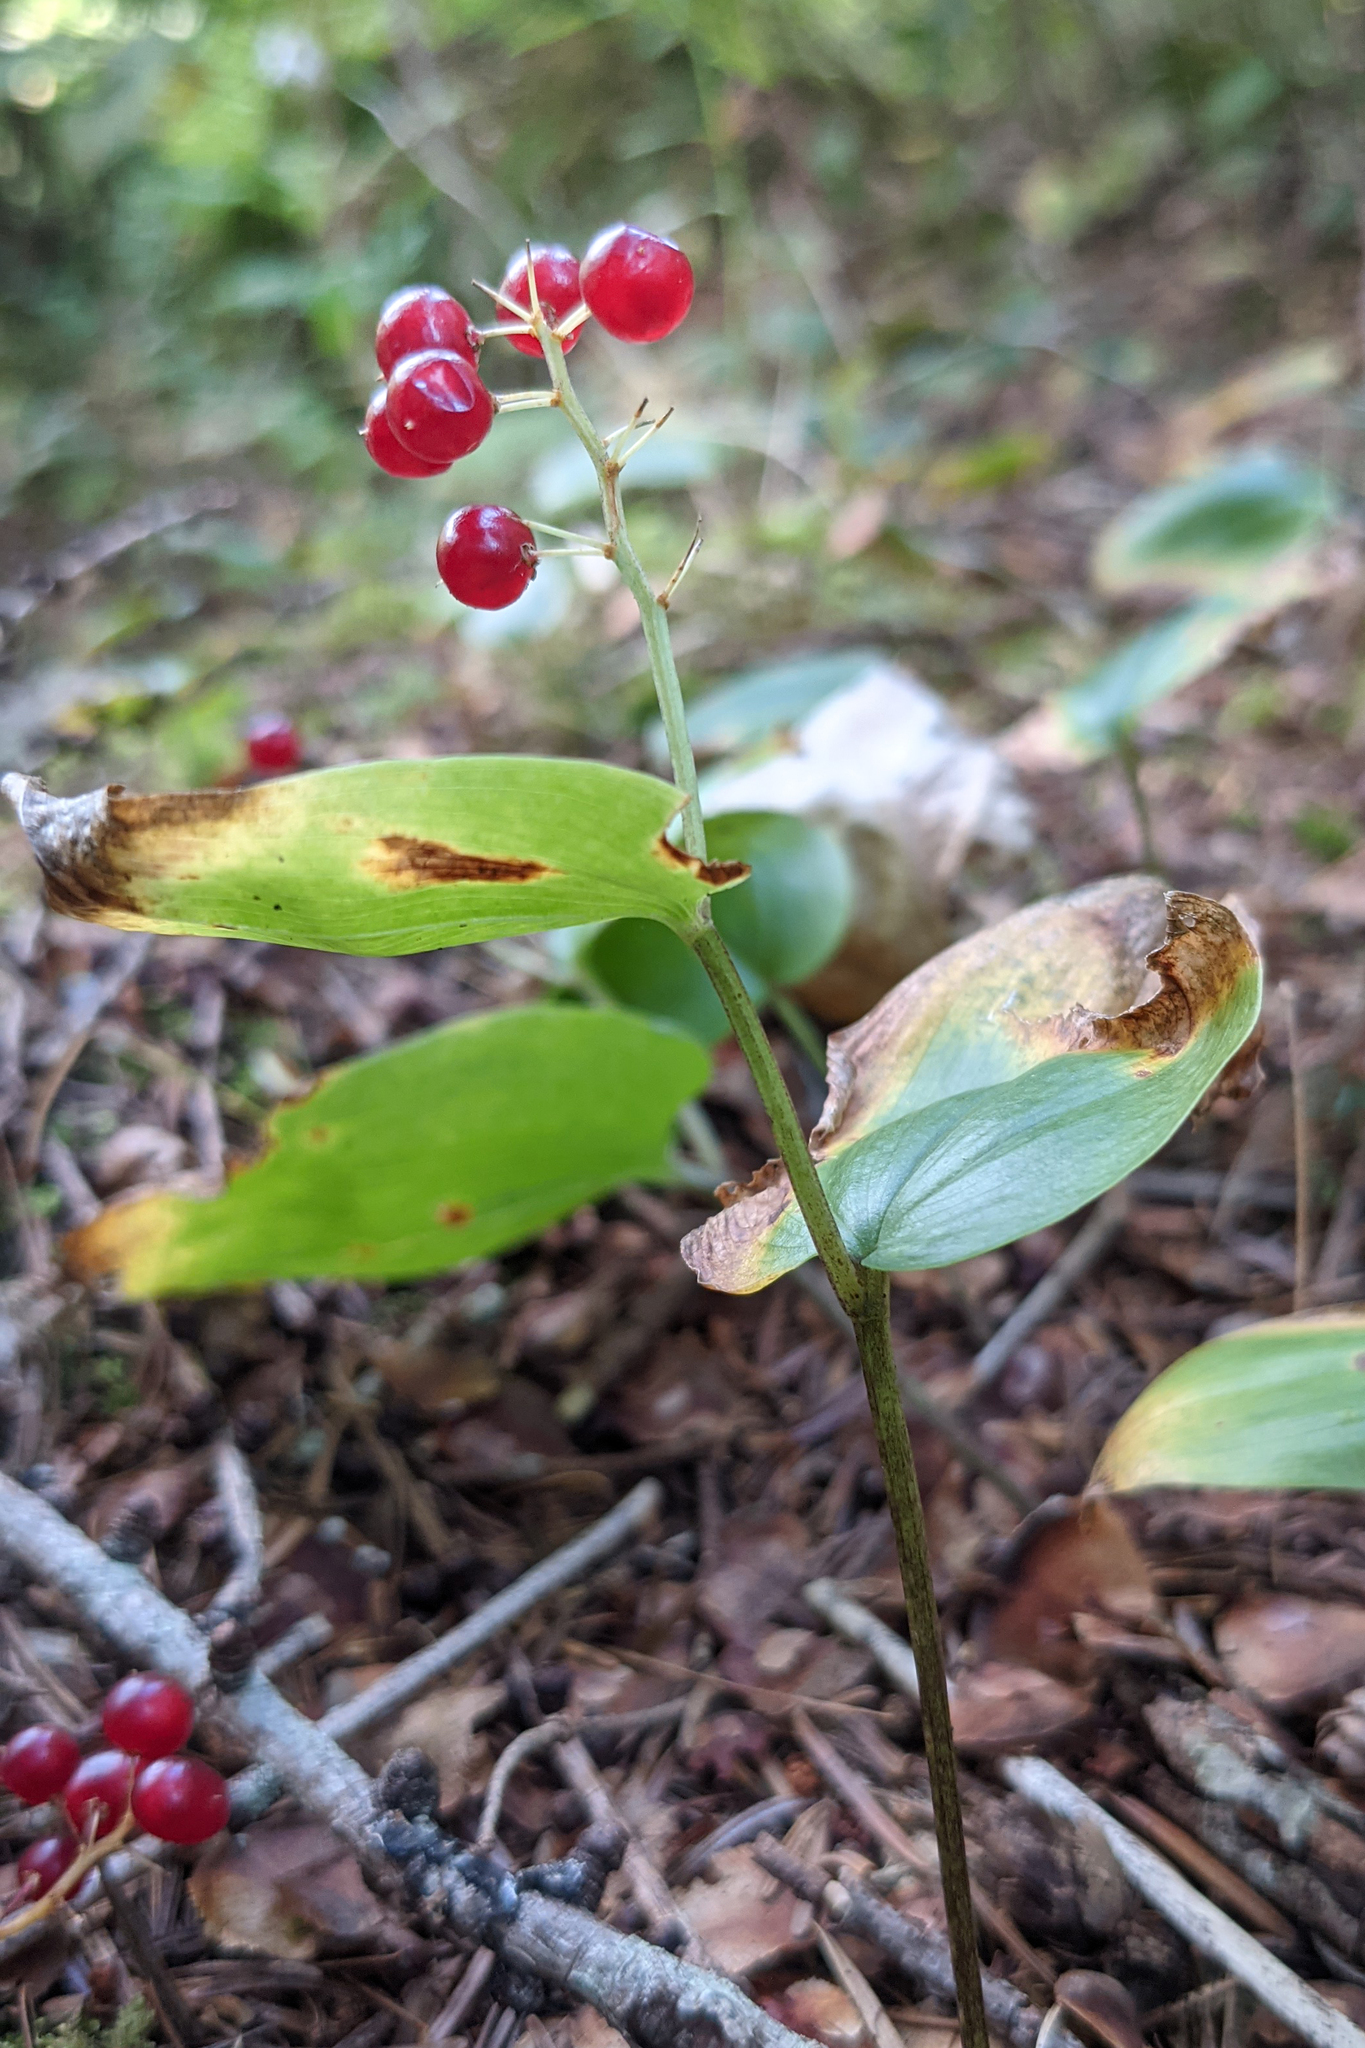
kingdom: Plantae
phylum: Tracheophyta
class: Liliopsida
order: Asparagales
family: Asparagaceae
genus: Maianthemum
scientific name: Maianthemum canadense
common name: False lily-of-the-valley
